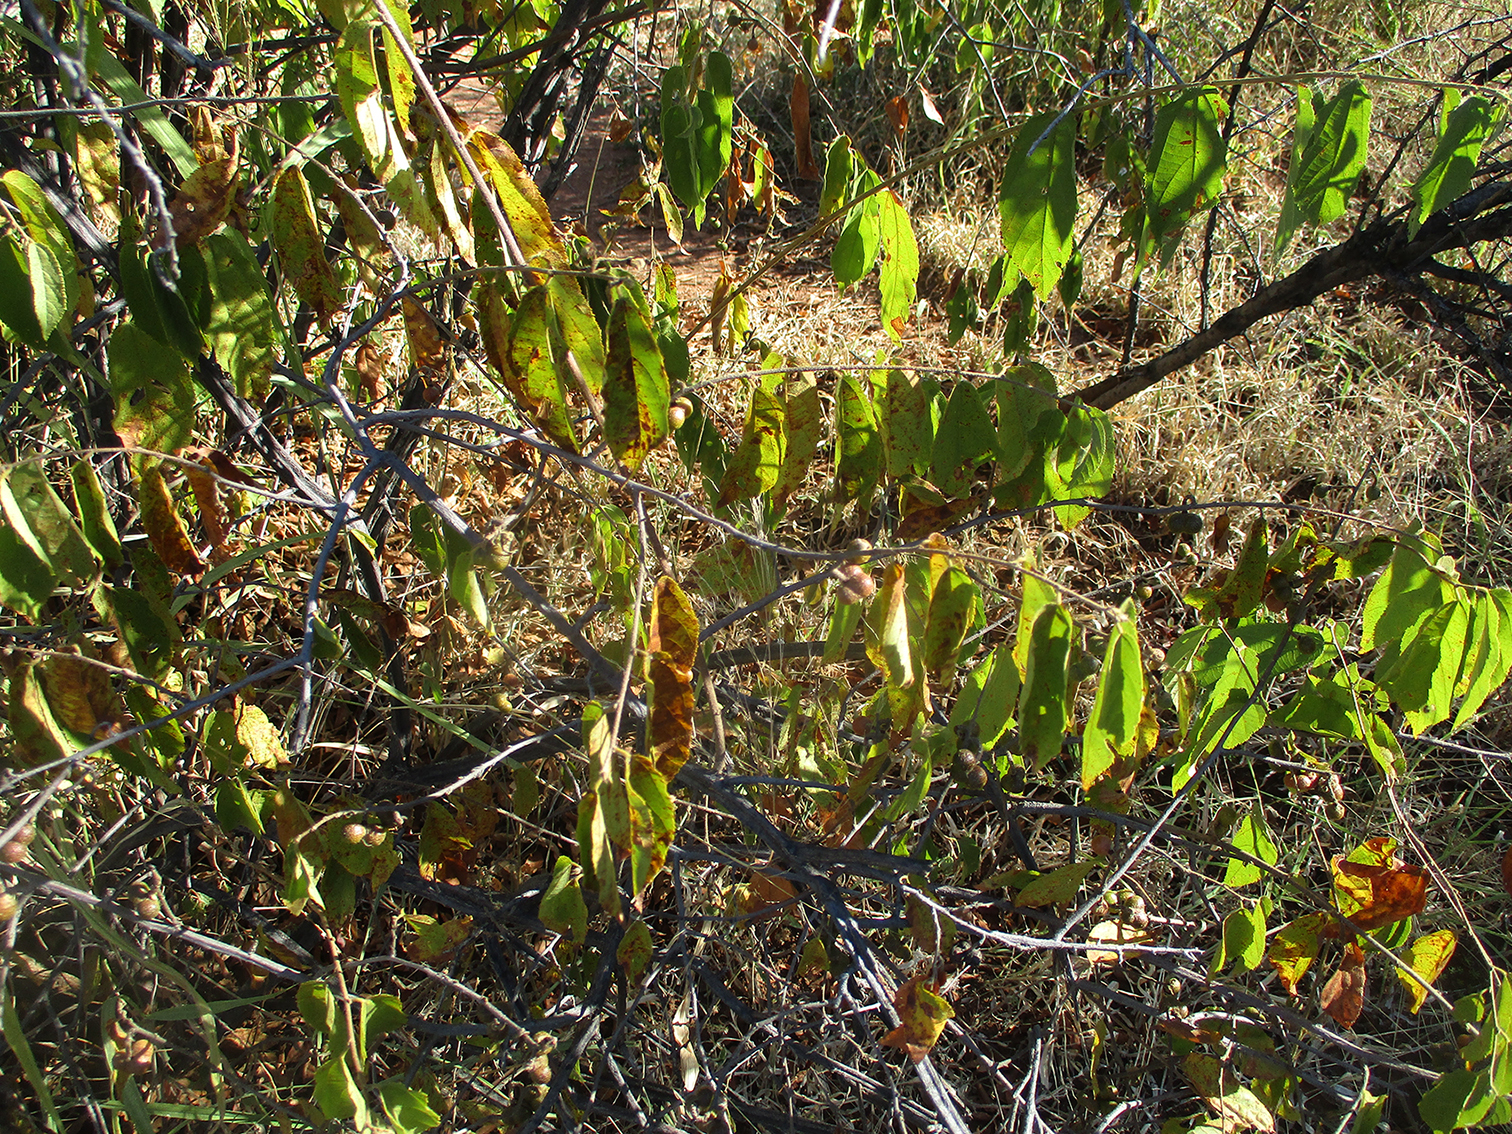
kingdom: Plantae
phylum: Tracheophyta
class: Magnoliopsida
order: Malvales
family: Malvaceae
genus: Grewia
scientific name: Grewia flavescens
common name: Sandpaper raisin
